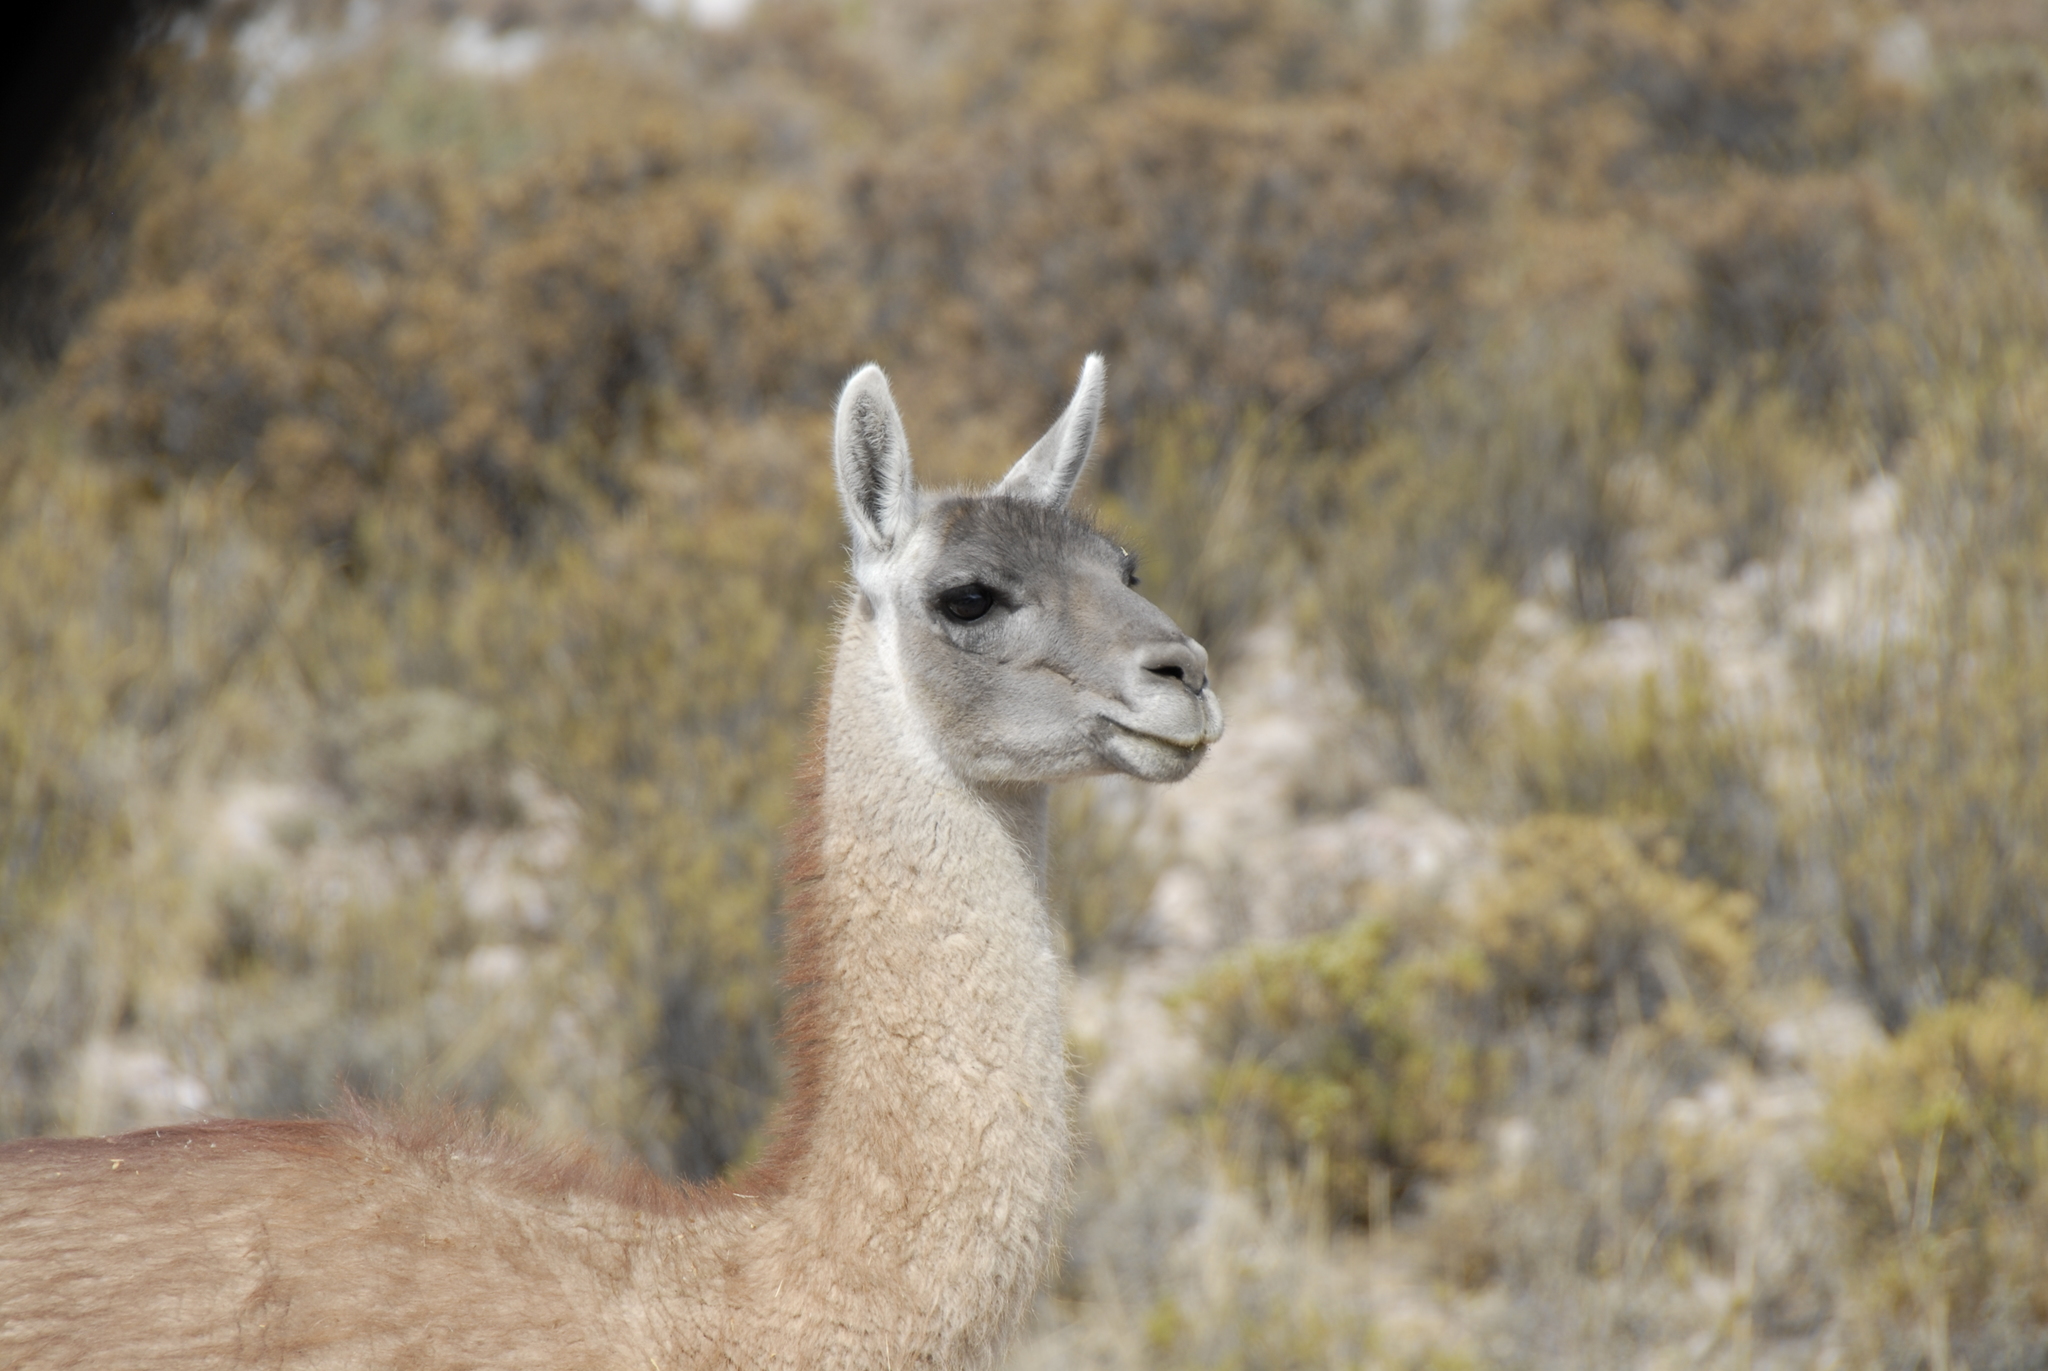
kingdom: Animalia
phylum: Chordata
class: Mammalia
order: Artiodactyla
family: Camelidae
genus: Lama
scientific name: Lama glama
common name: Llama
